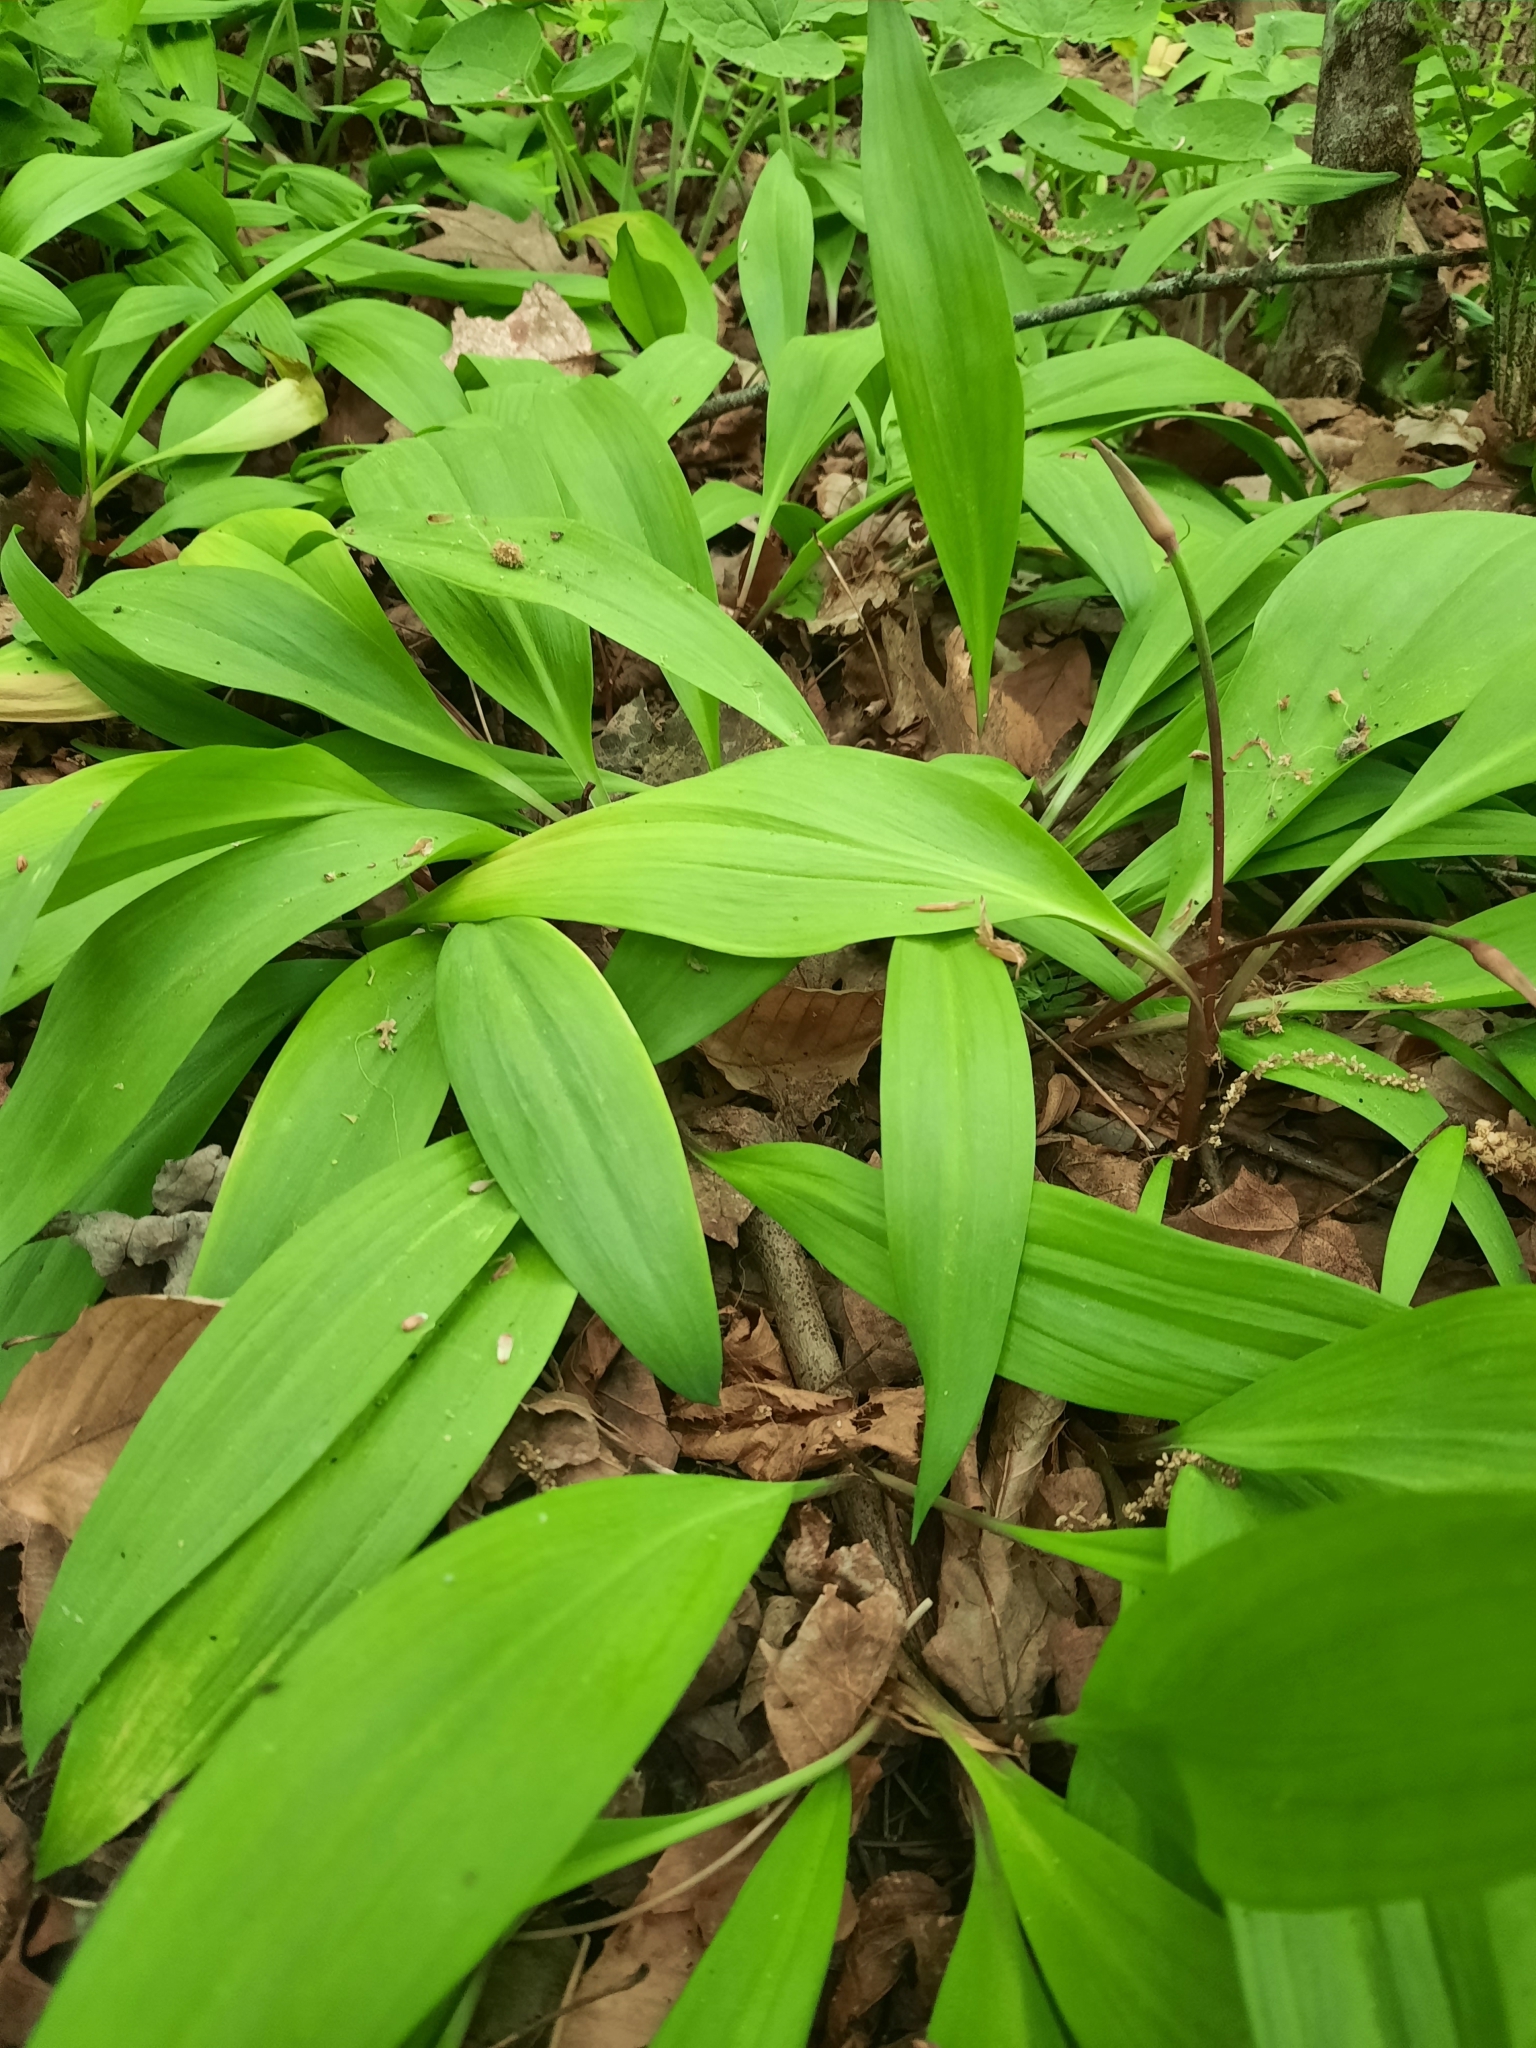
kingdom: Plantae
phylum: Tracheophyta
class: Liliopsida
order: Asparagales
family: Amaryllidaceae
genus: Allium
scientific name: Allium tricoccum
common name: Ramp
